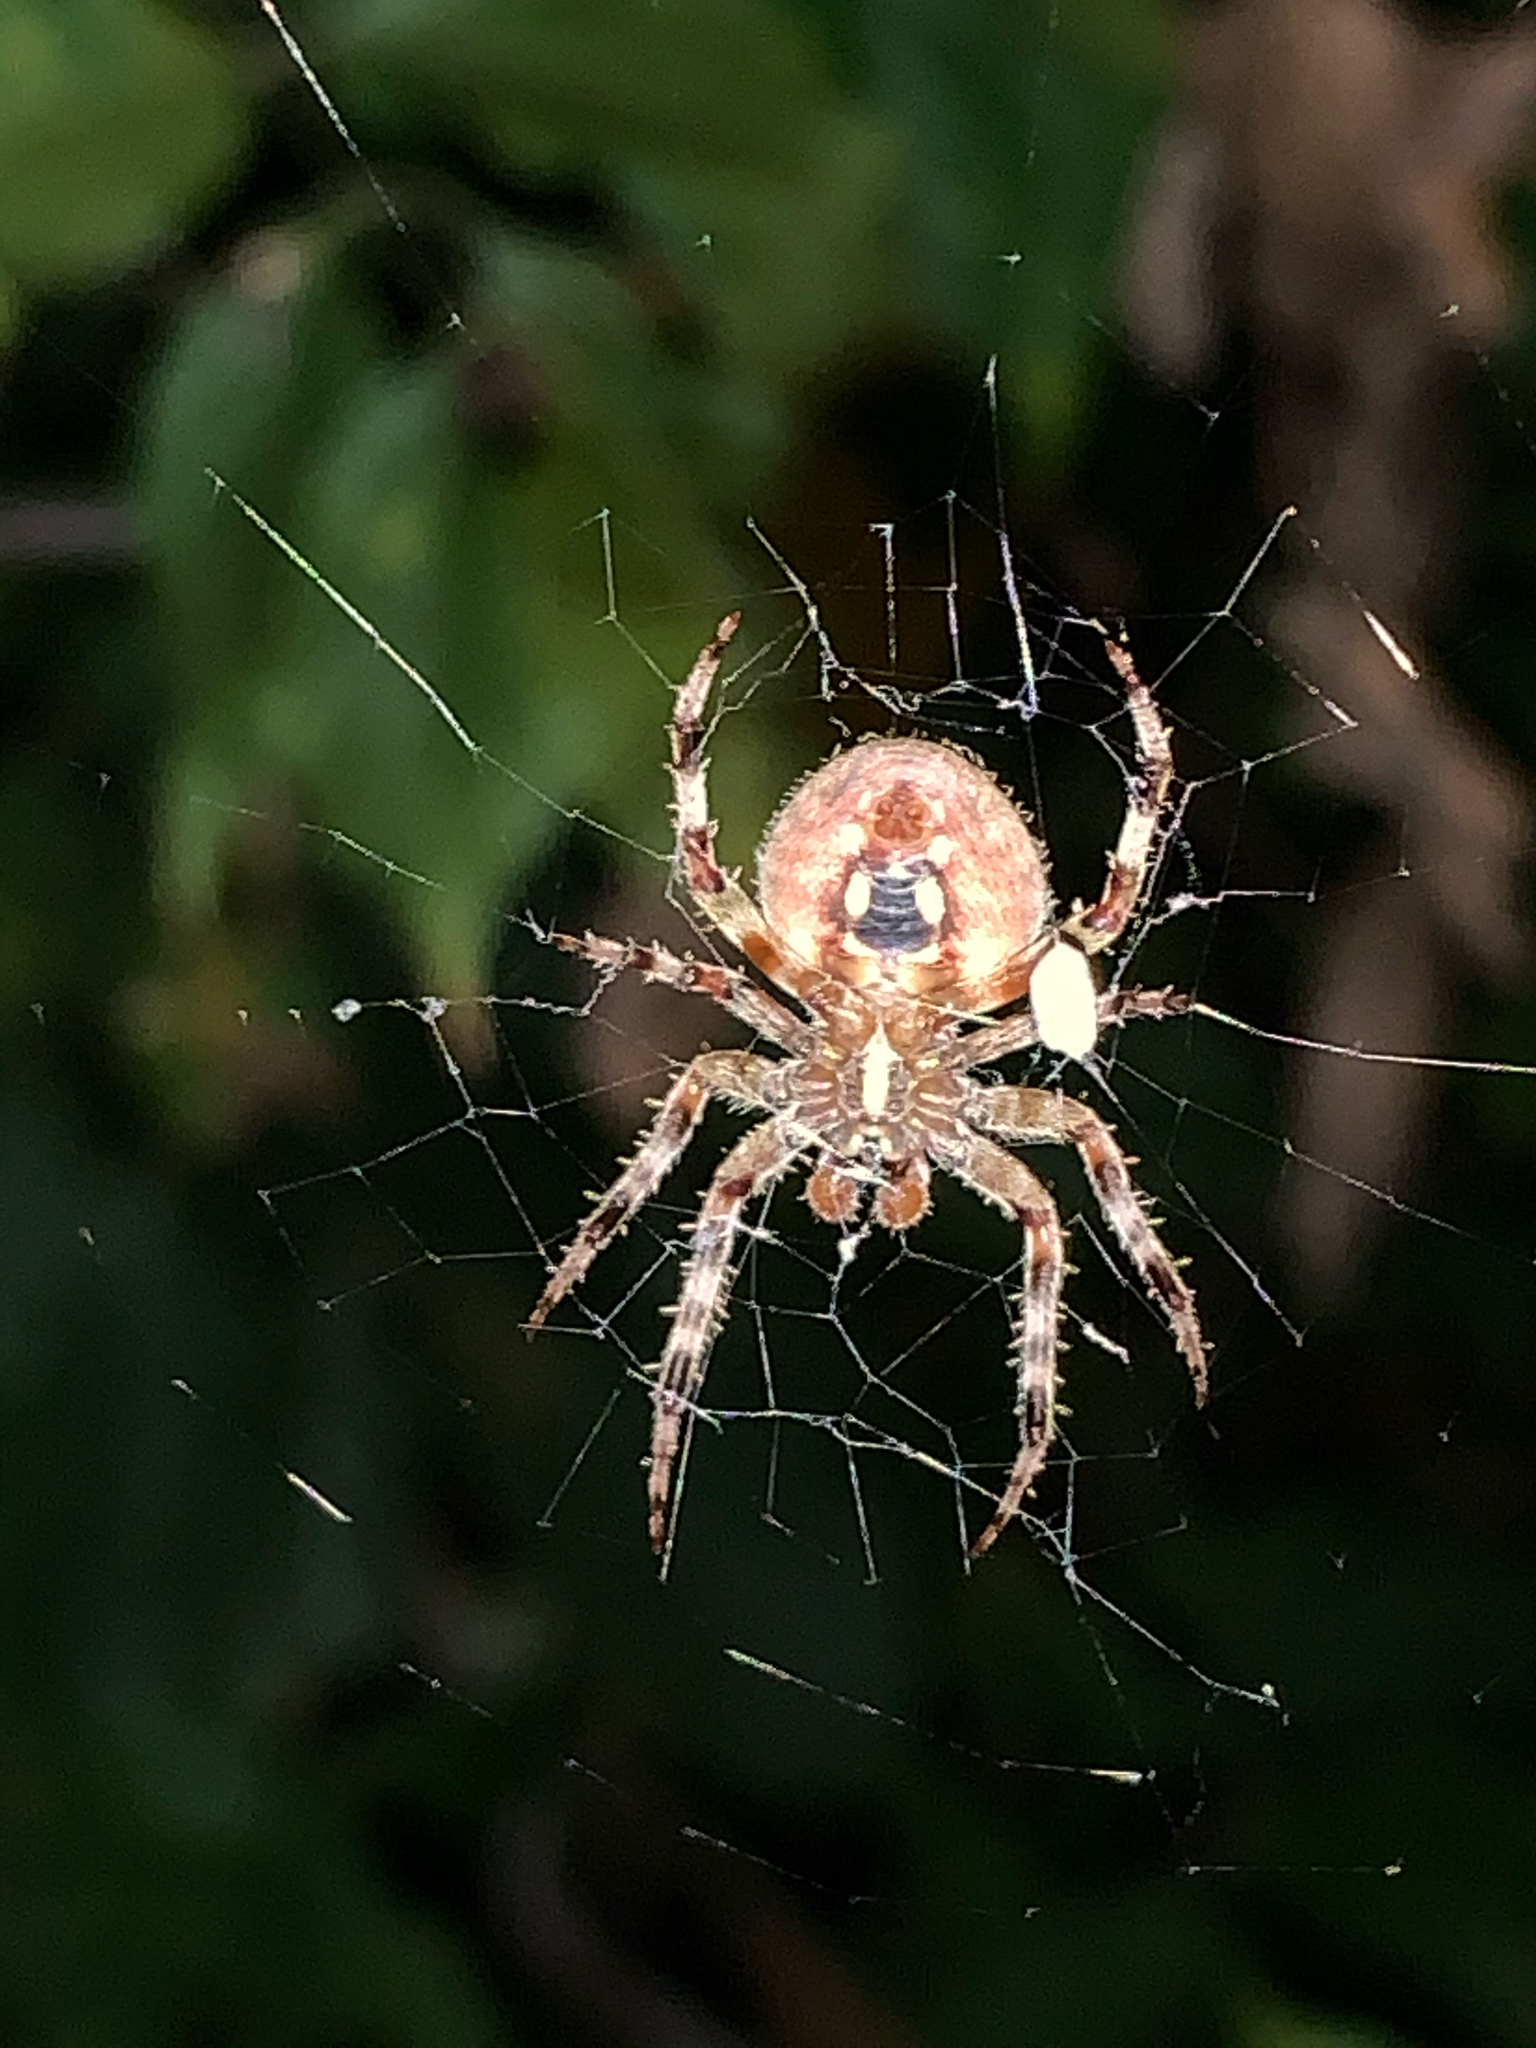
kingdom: Animalia
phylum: Arthropoda
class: Arachnida
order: Araneae
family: Araneidae
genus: Neoscona
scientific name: Neoscona
